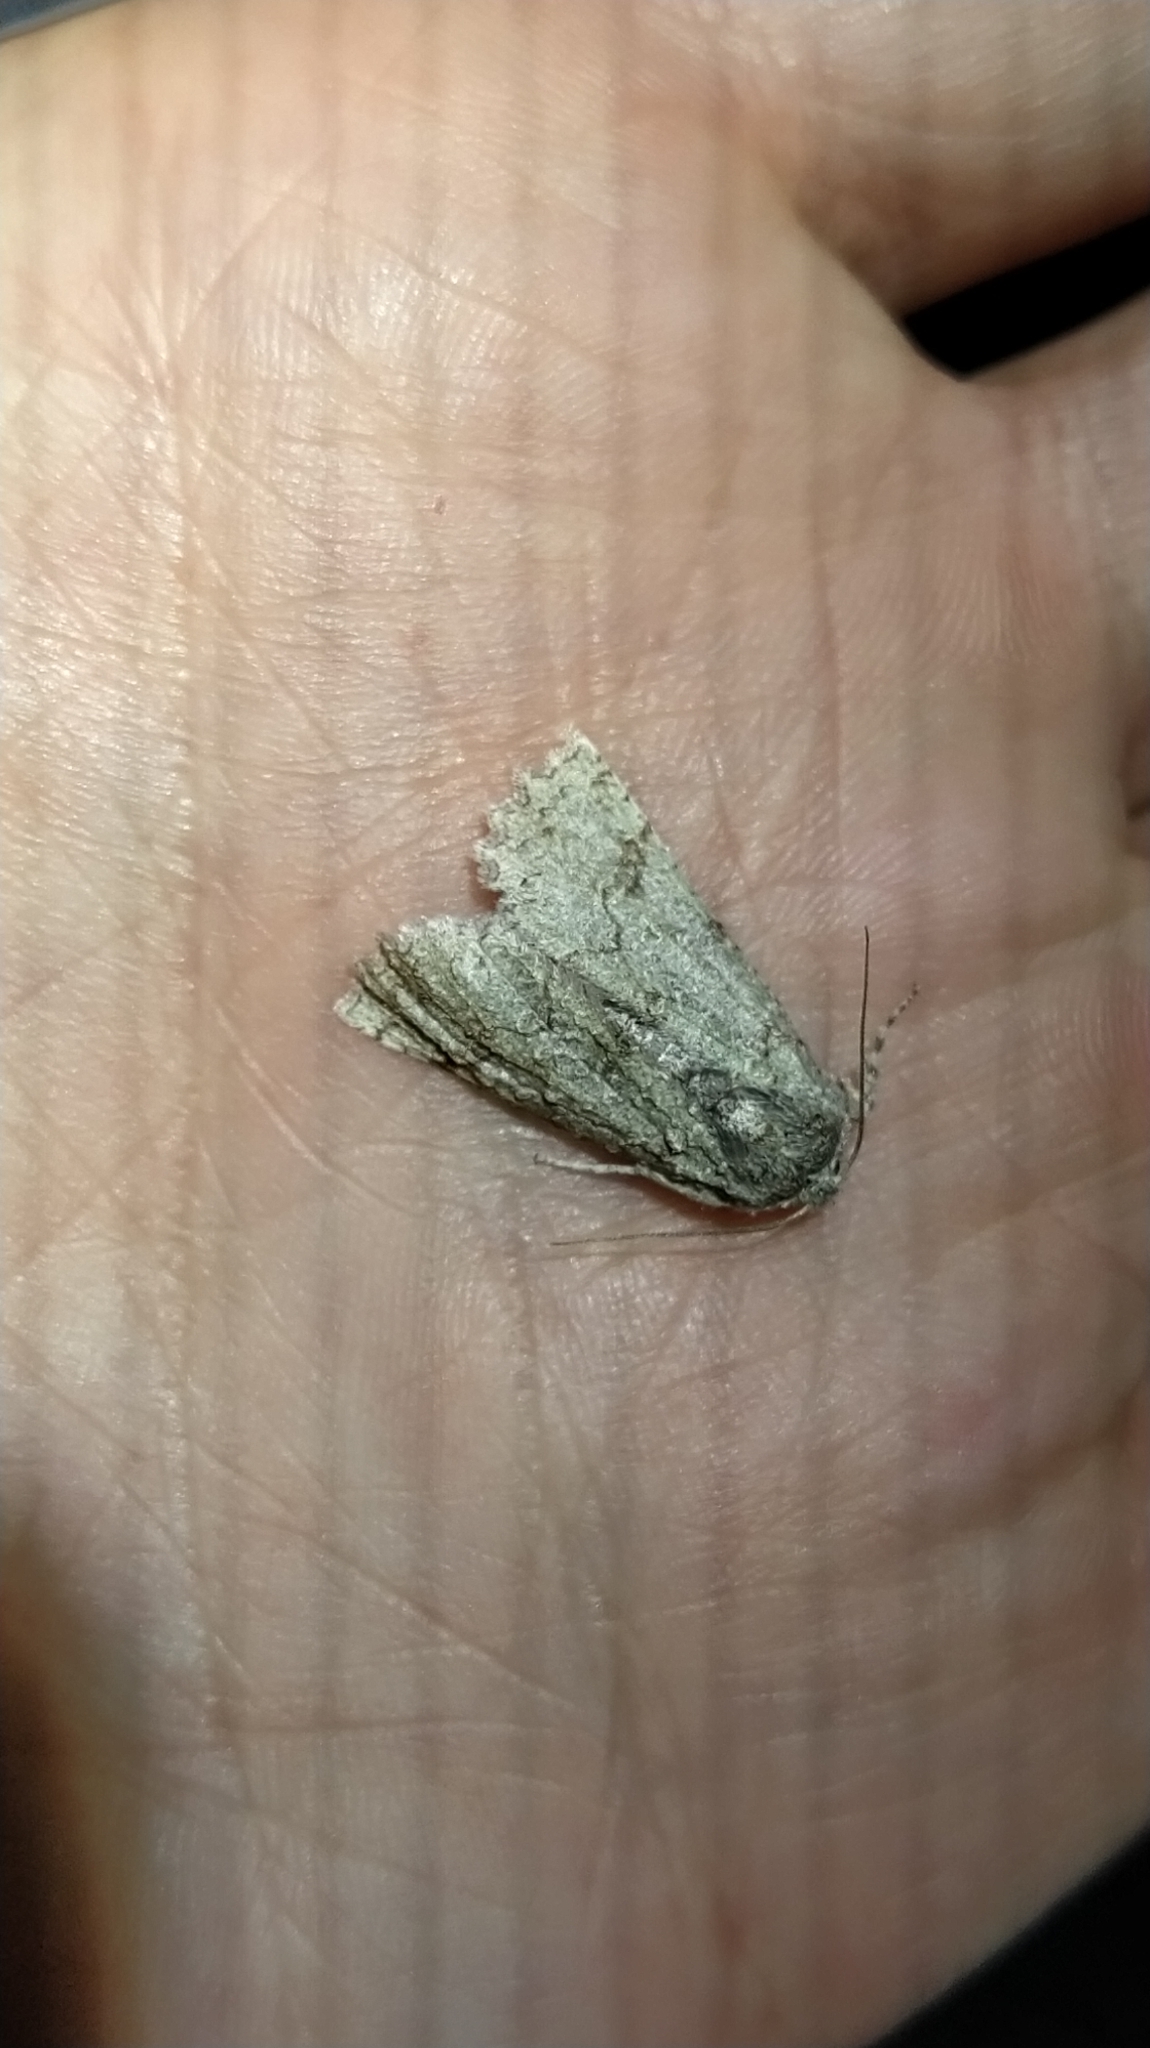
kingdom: Animalia
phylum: Arthropoda
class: Insecta
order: Lepidoptera
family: Geometridae
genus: Declana
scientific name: Declana floccosa
